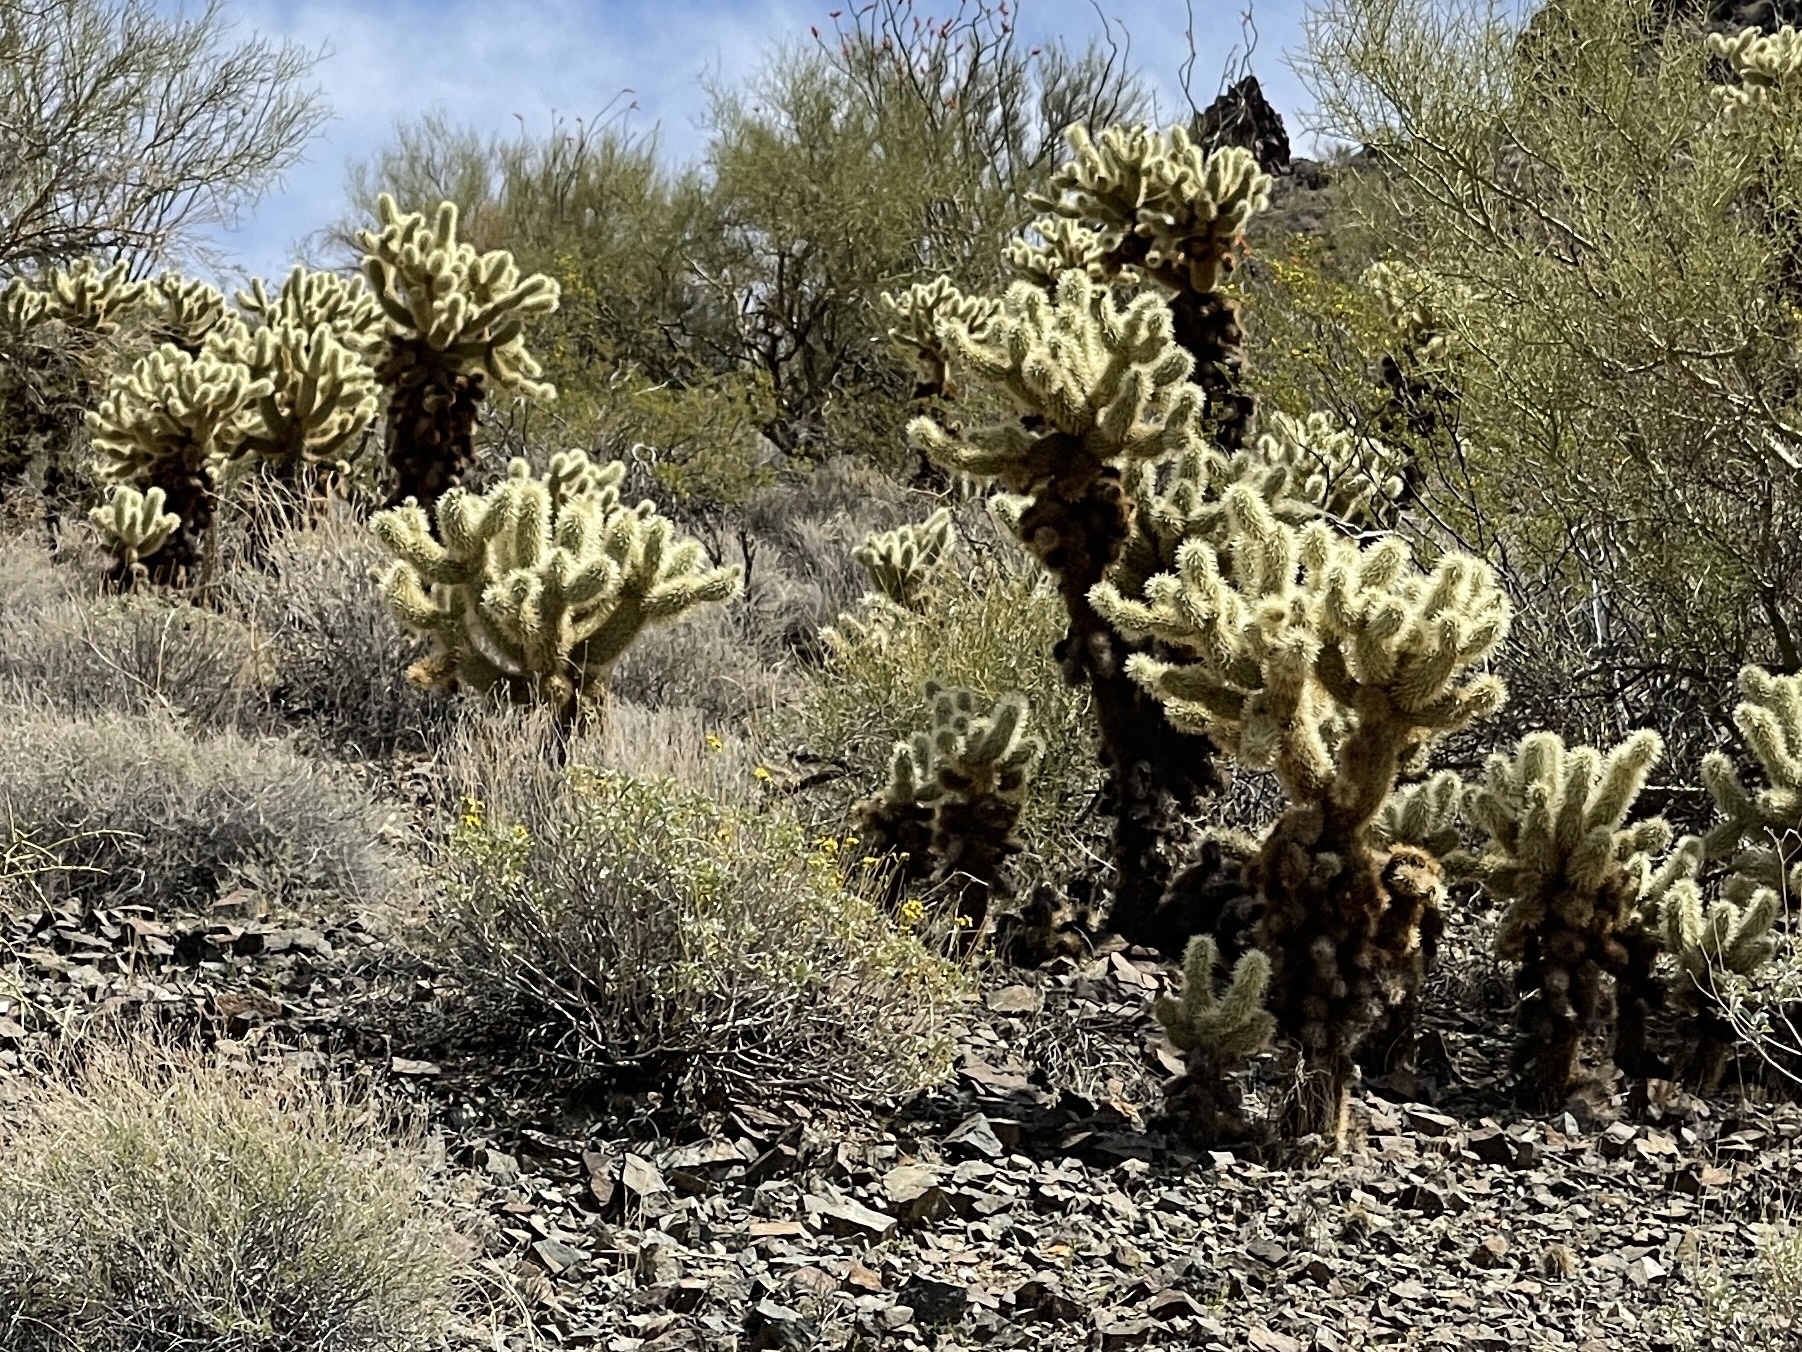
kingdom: Plantae
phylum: Tracheophyta
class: Magnoliopsida
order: Caryophyllales
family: Cactaceae
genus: Cylindropuntia
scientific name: Cylindropuntia fosbergii
